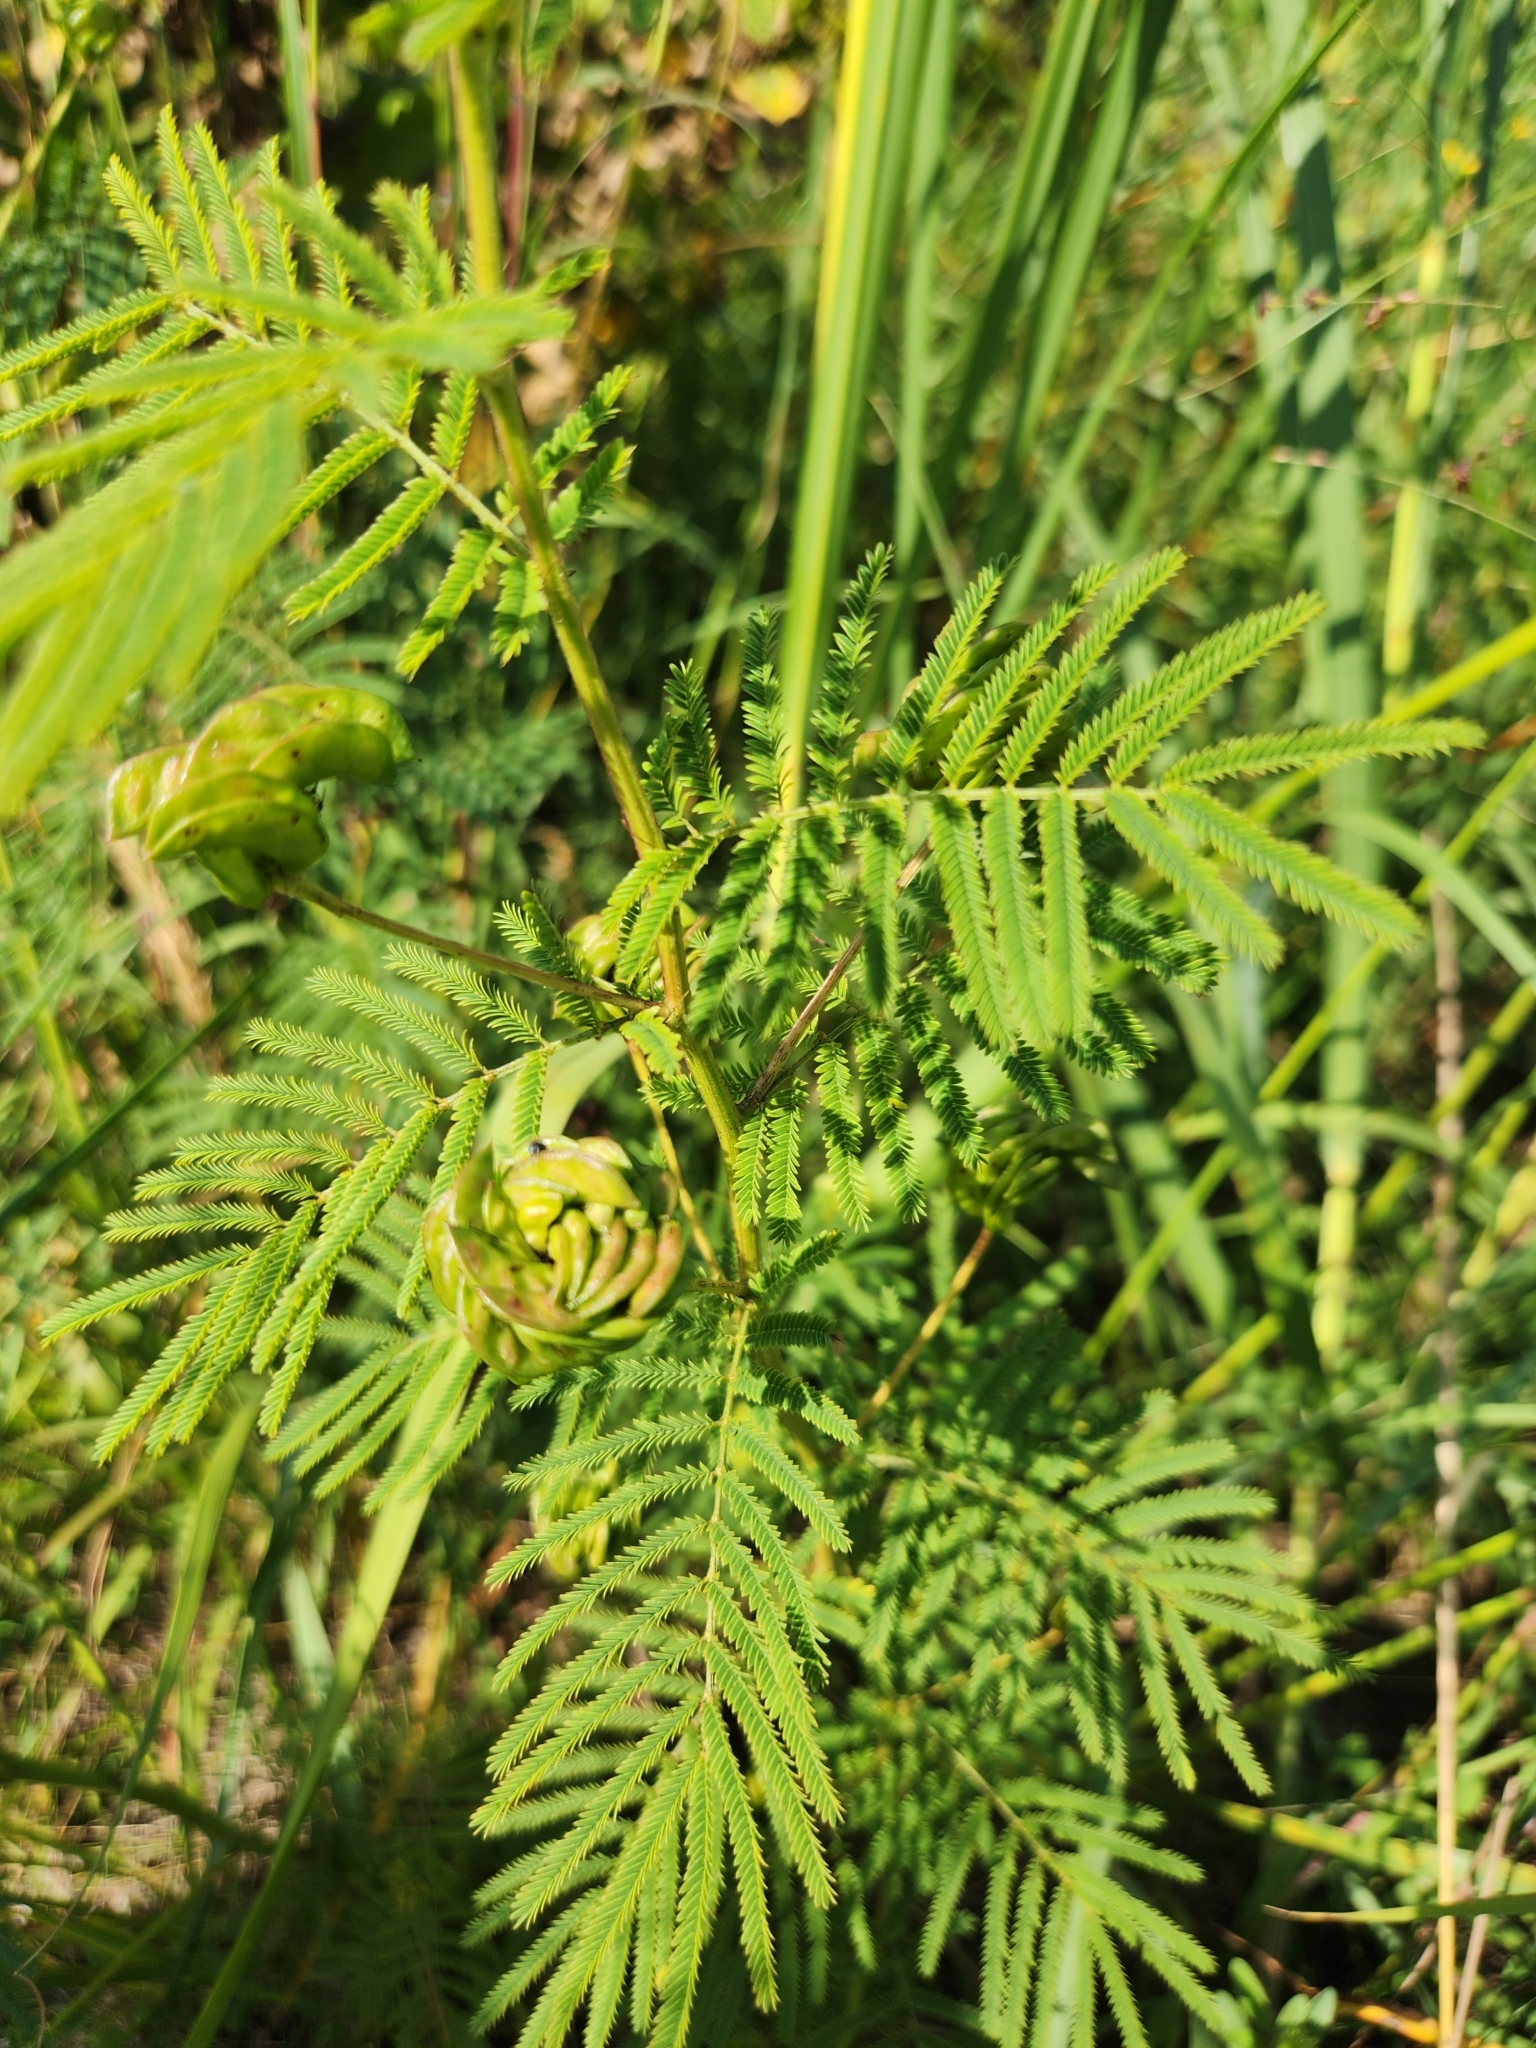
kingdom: Plantae
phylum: Tracheophyta
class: Magnoliopsida
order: Fabales
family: Fabaceae
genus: Desmanthus
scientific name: Desmanthus illinoensis
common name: Illinois bundle-flower
